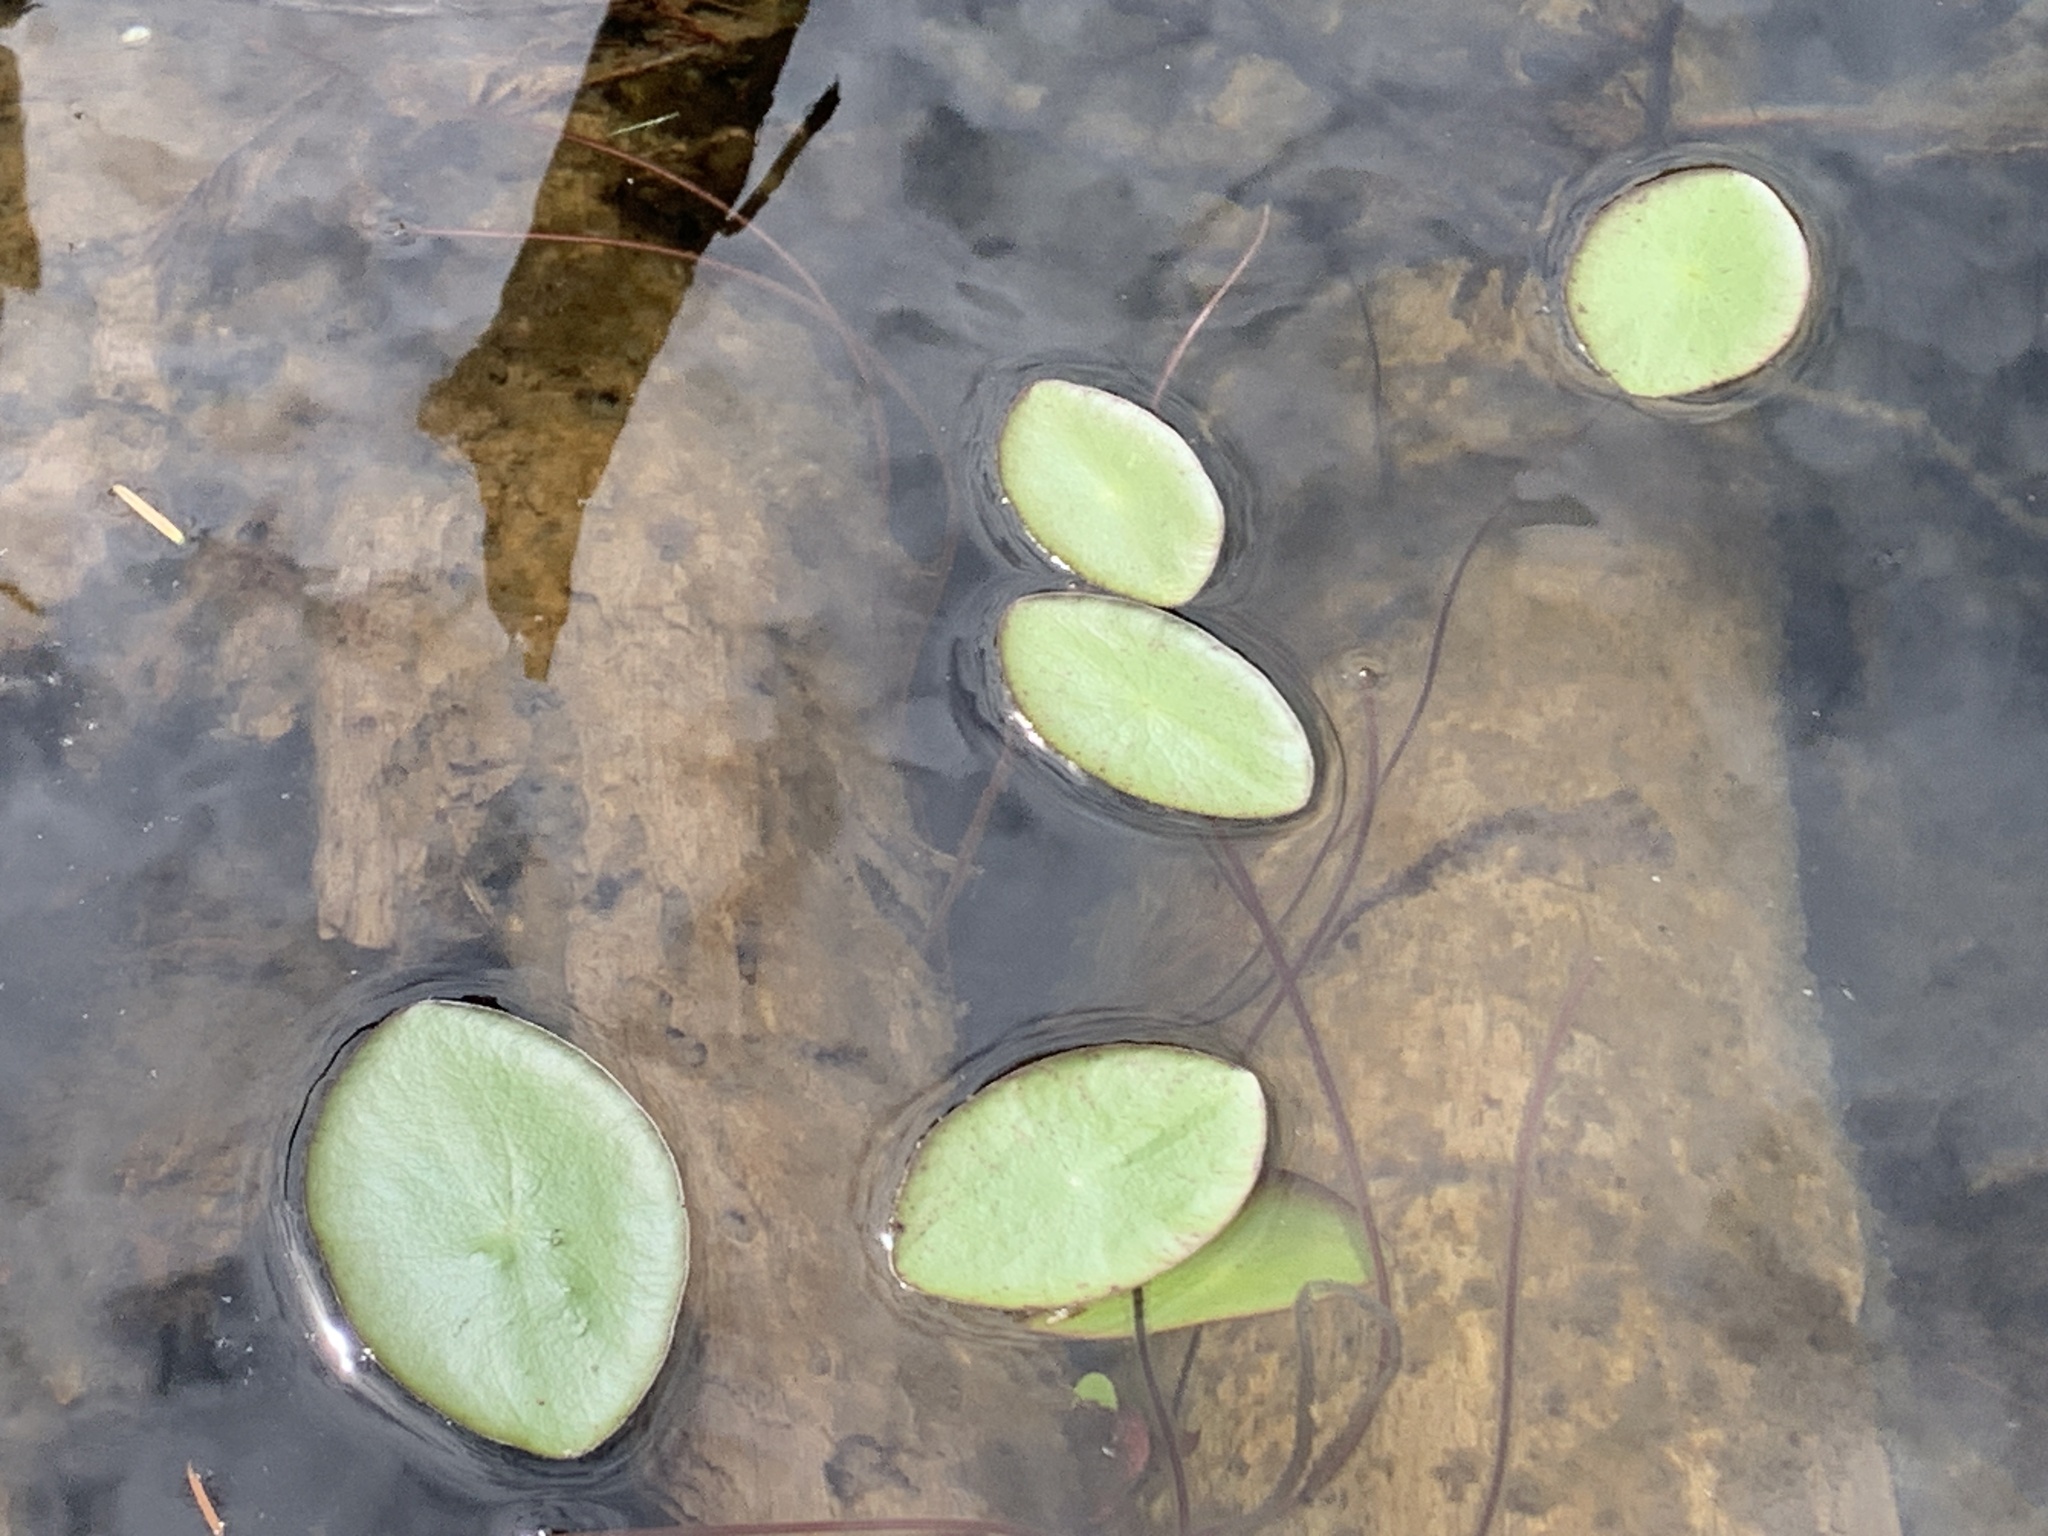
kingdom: Plantae
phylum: Tracheophyta
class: Magnoliopsida
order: Nymphaeales
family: Cabombaceae
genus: Brasenia
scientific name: Brasenia schreberi
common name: Water-shield
